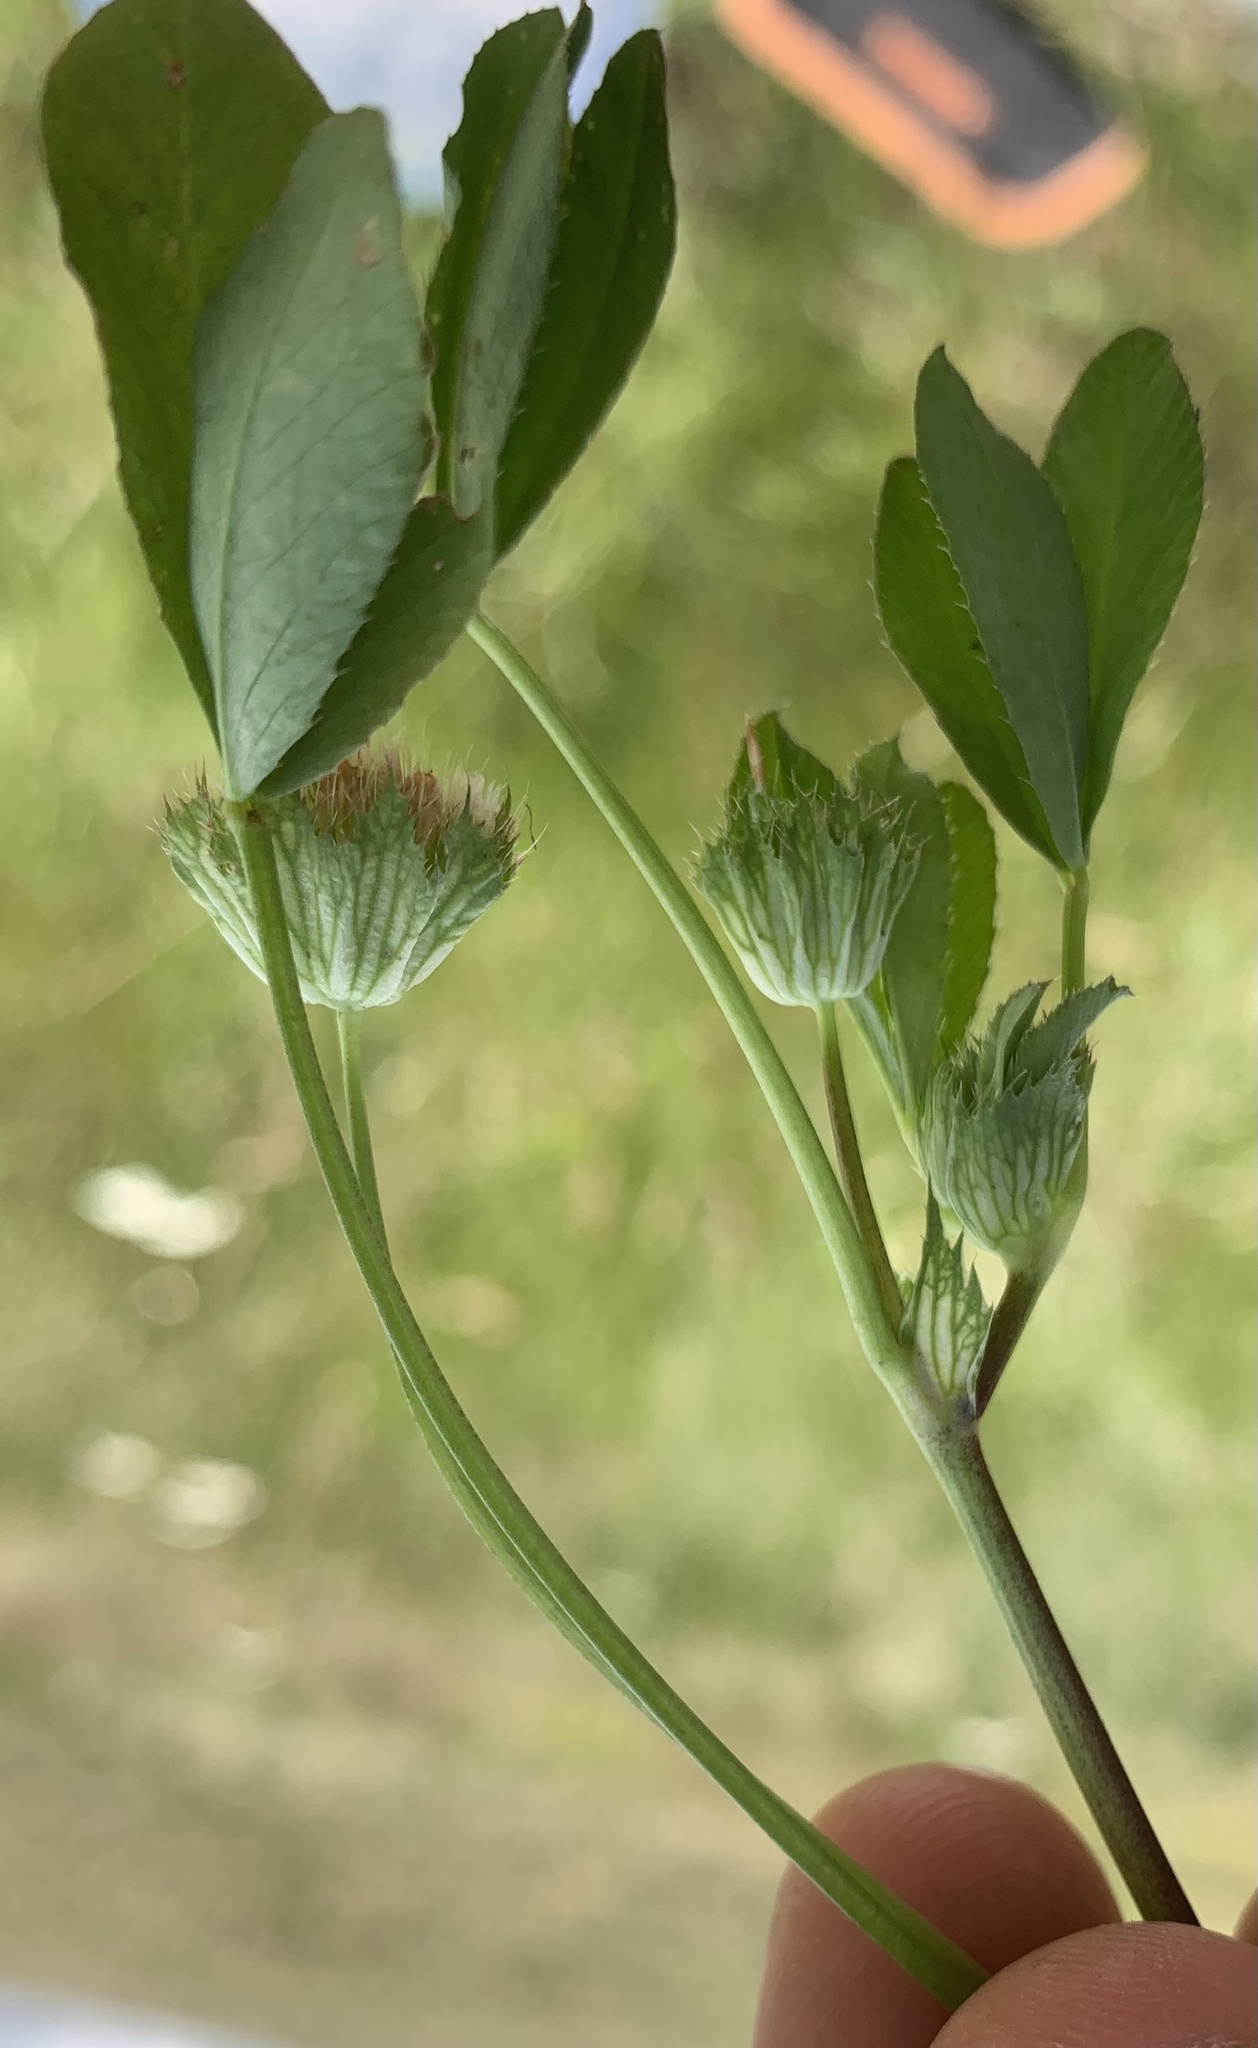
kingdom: Plantae
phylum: Tracheophyta
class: Magnoliopsida
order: Fabales
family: Fabaceae
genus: Trifolium
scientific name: Trifolium cyathiferum
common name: Bowl clover
